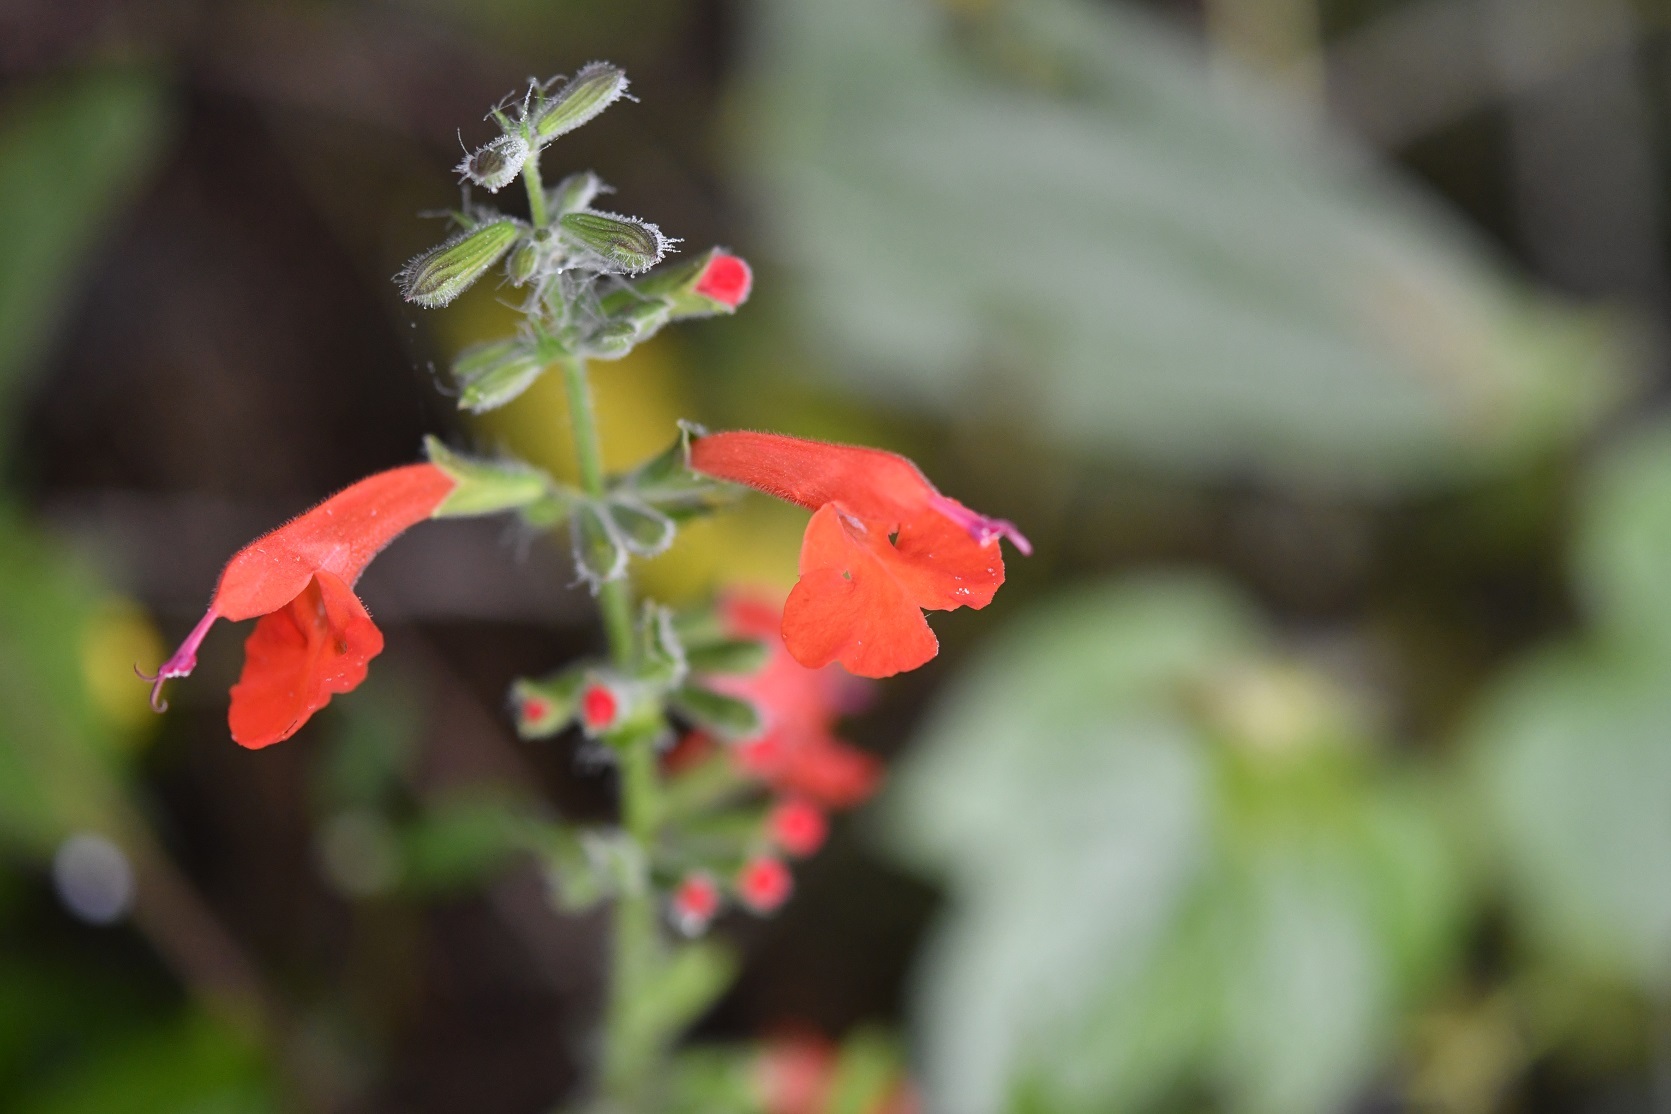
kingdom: Plantae
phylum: Tracheophyta
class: Magnoliopsida
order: Lamiales
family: Lamiaceae
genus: Salvia
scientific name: Salvia coccinea
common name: Blood sage
